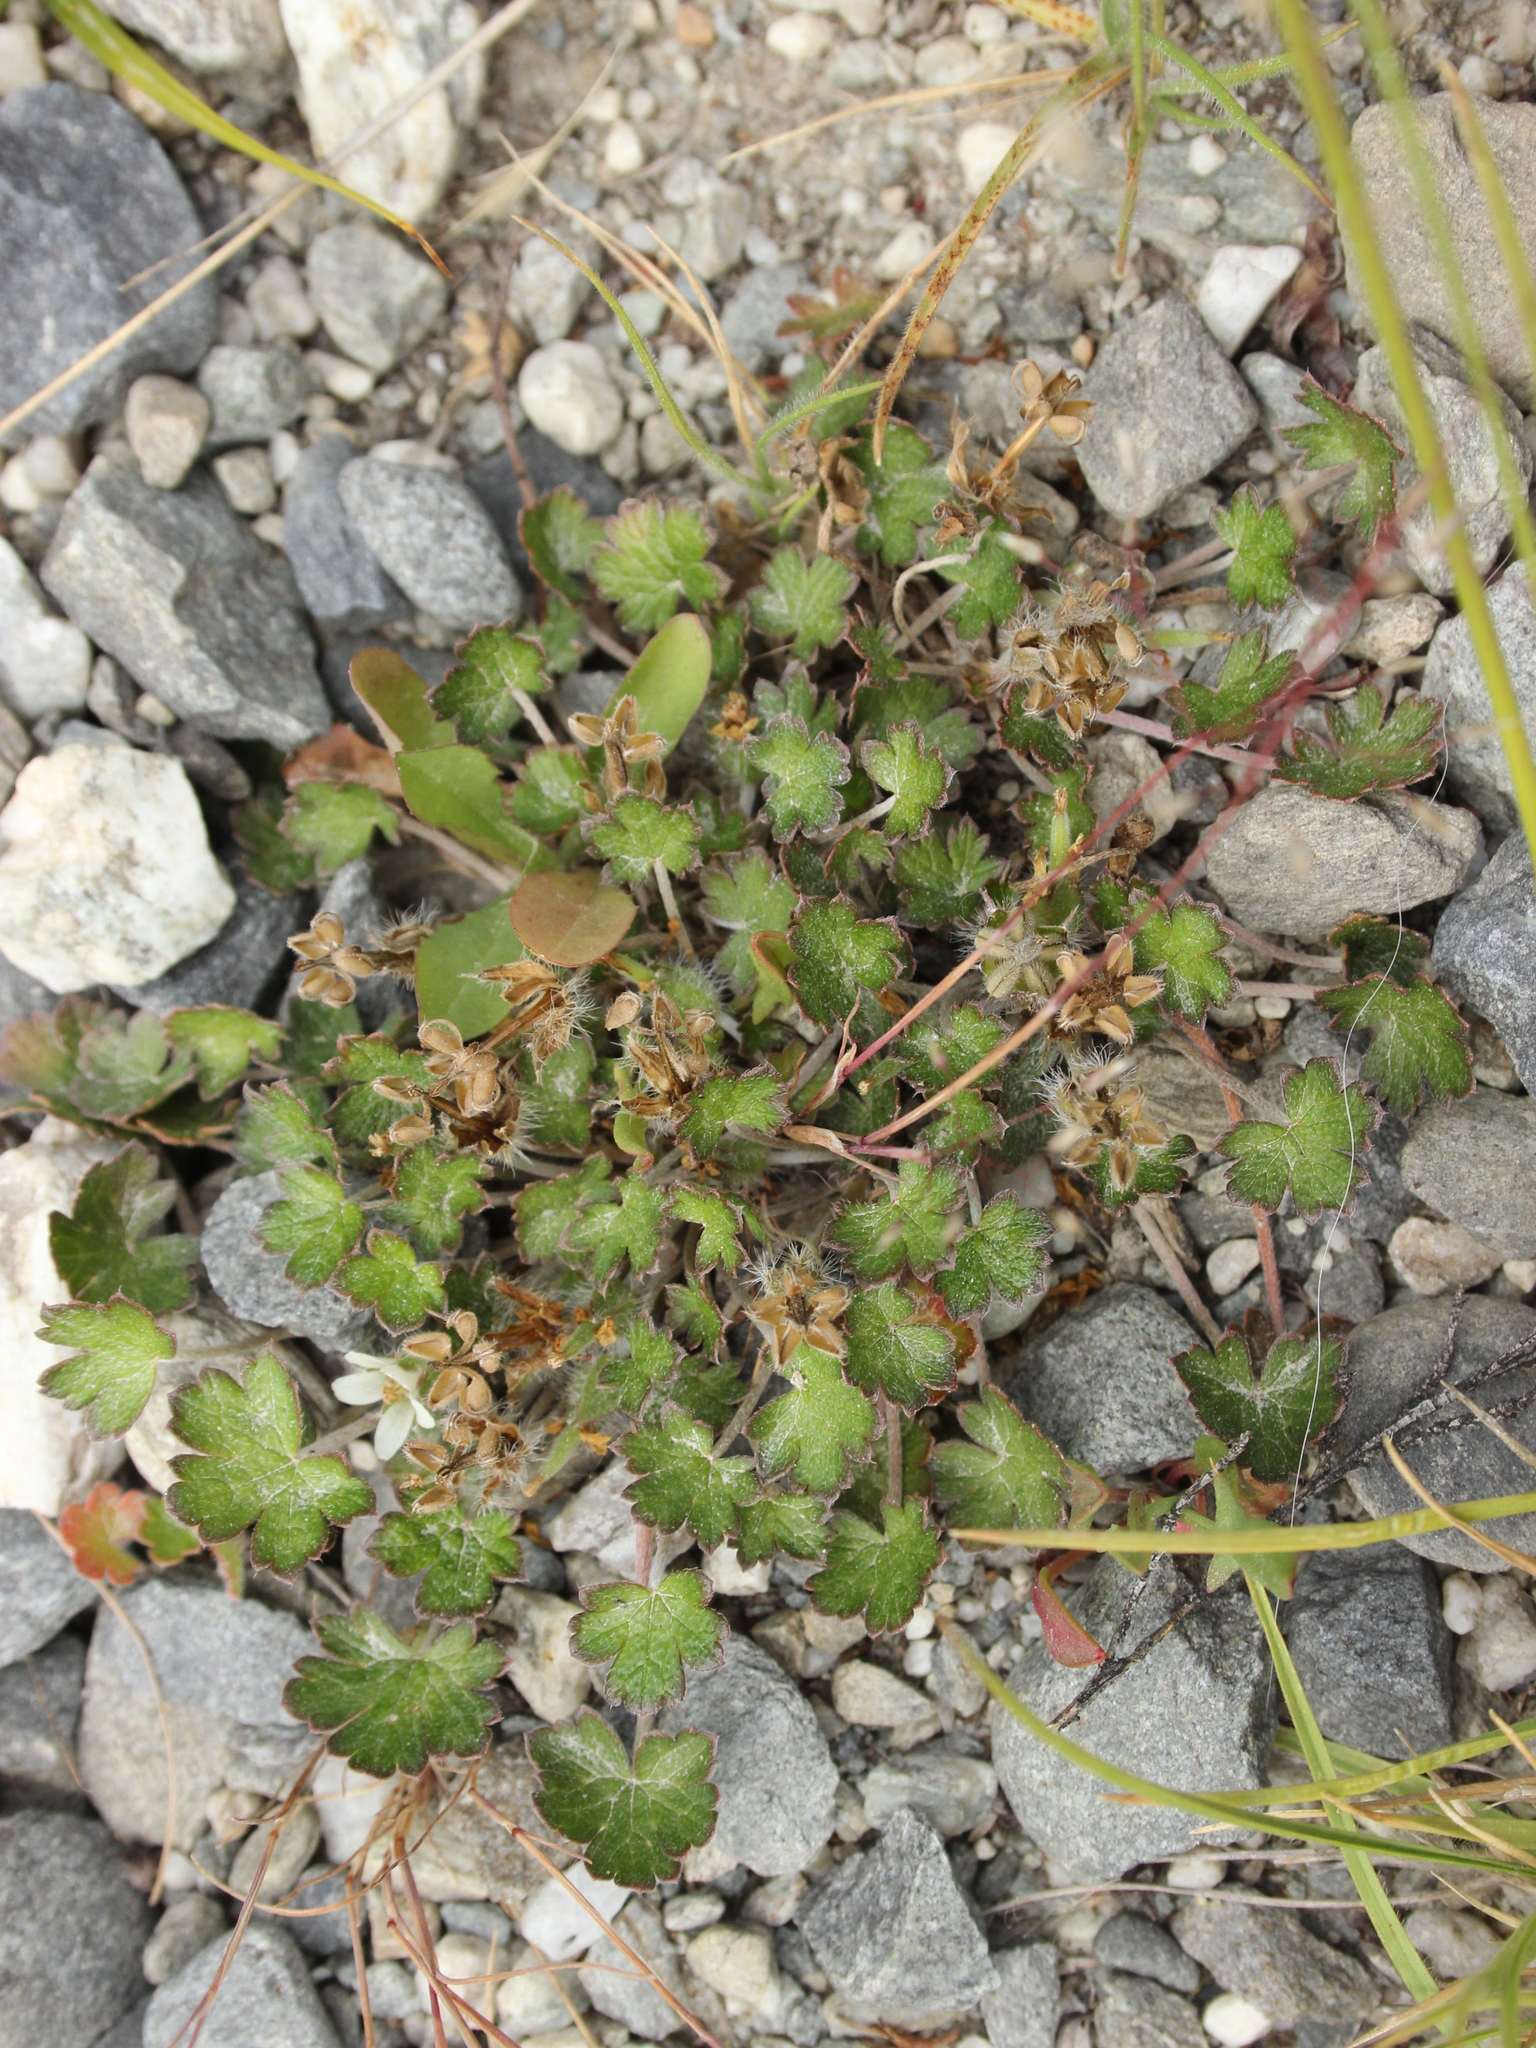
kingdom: Plantae
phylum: Tracheophyta
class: Magnoliopsida
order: Geraniales
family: Geraniaceae
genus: Geranium
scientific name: Geranium brevicaule
